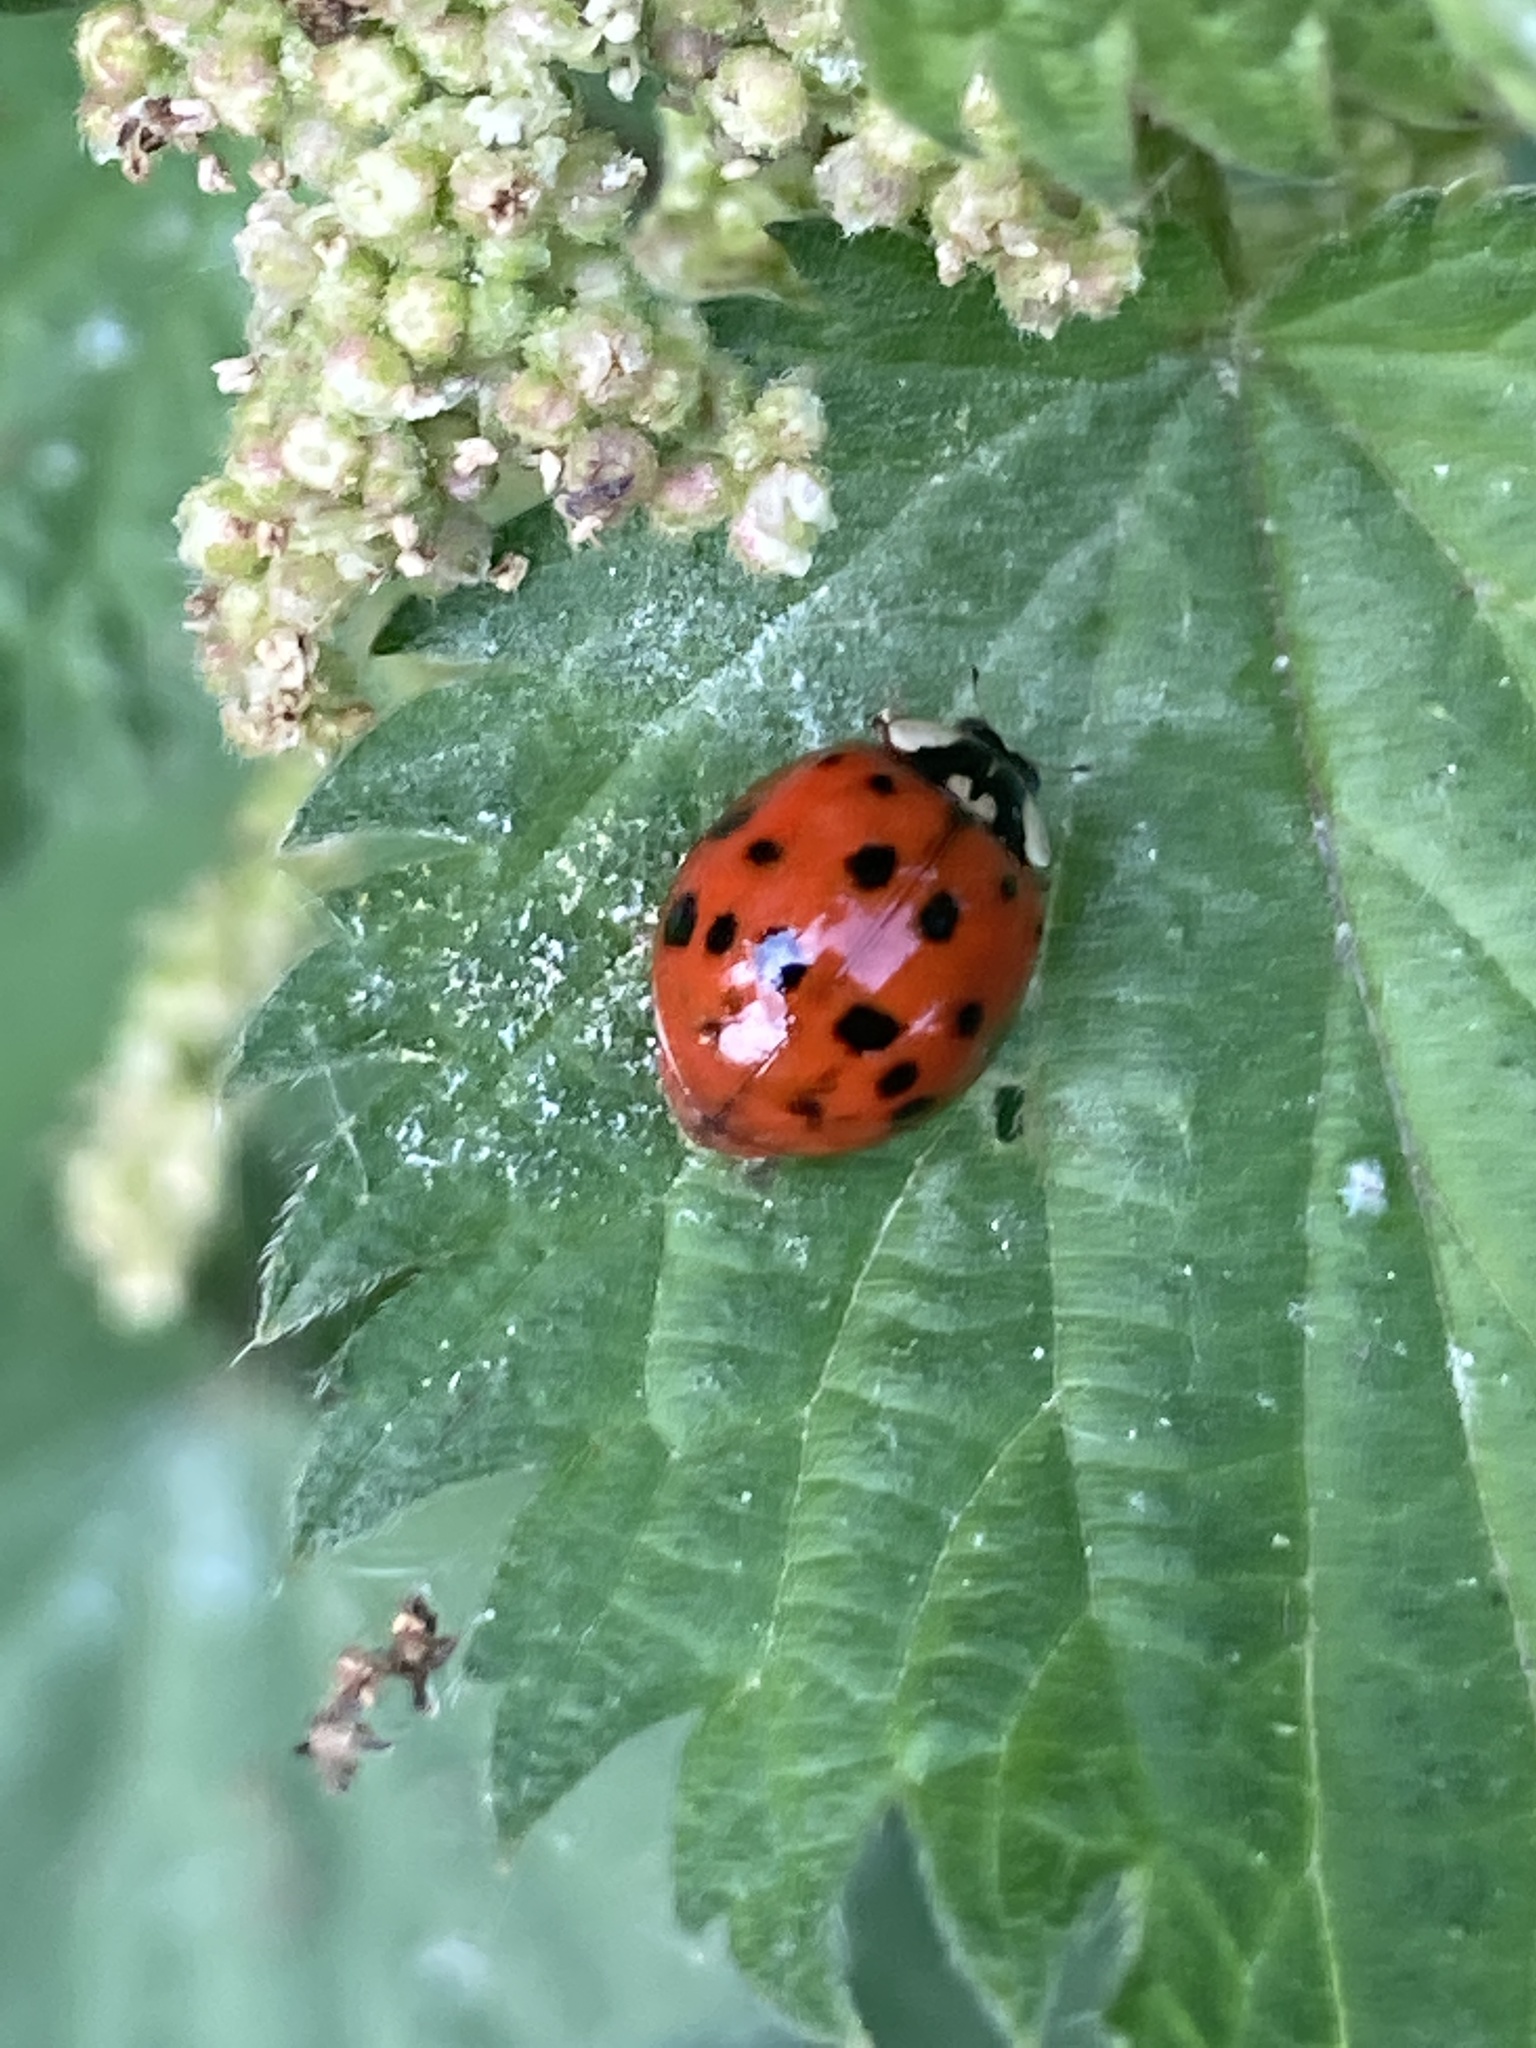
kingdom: Animalia
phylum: Arthropoda
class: Insecta
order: Coleoptera
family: Coccinellidae
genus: Harmonia
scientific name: Harmonia axyridis
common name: Harlequin ladybird
